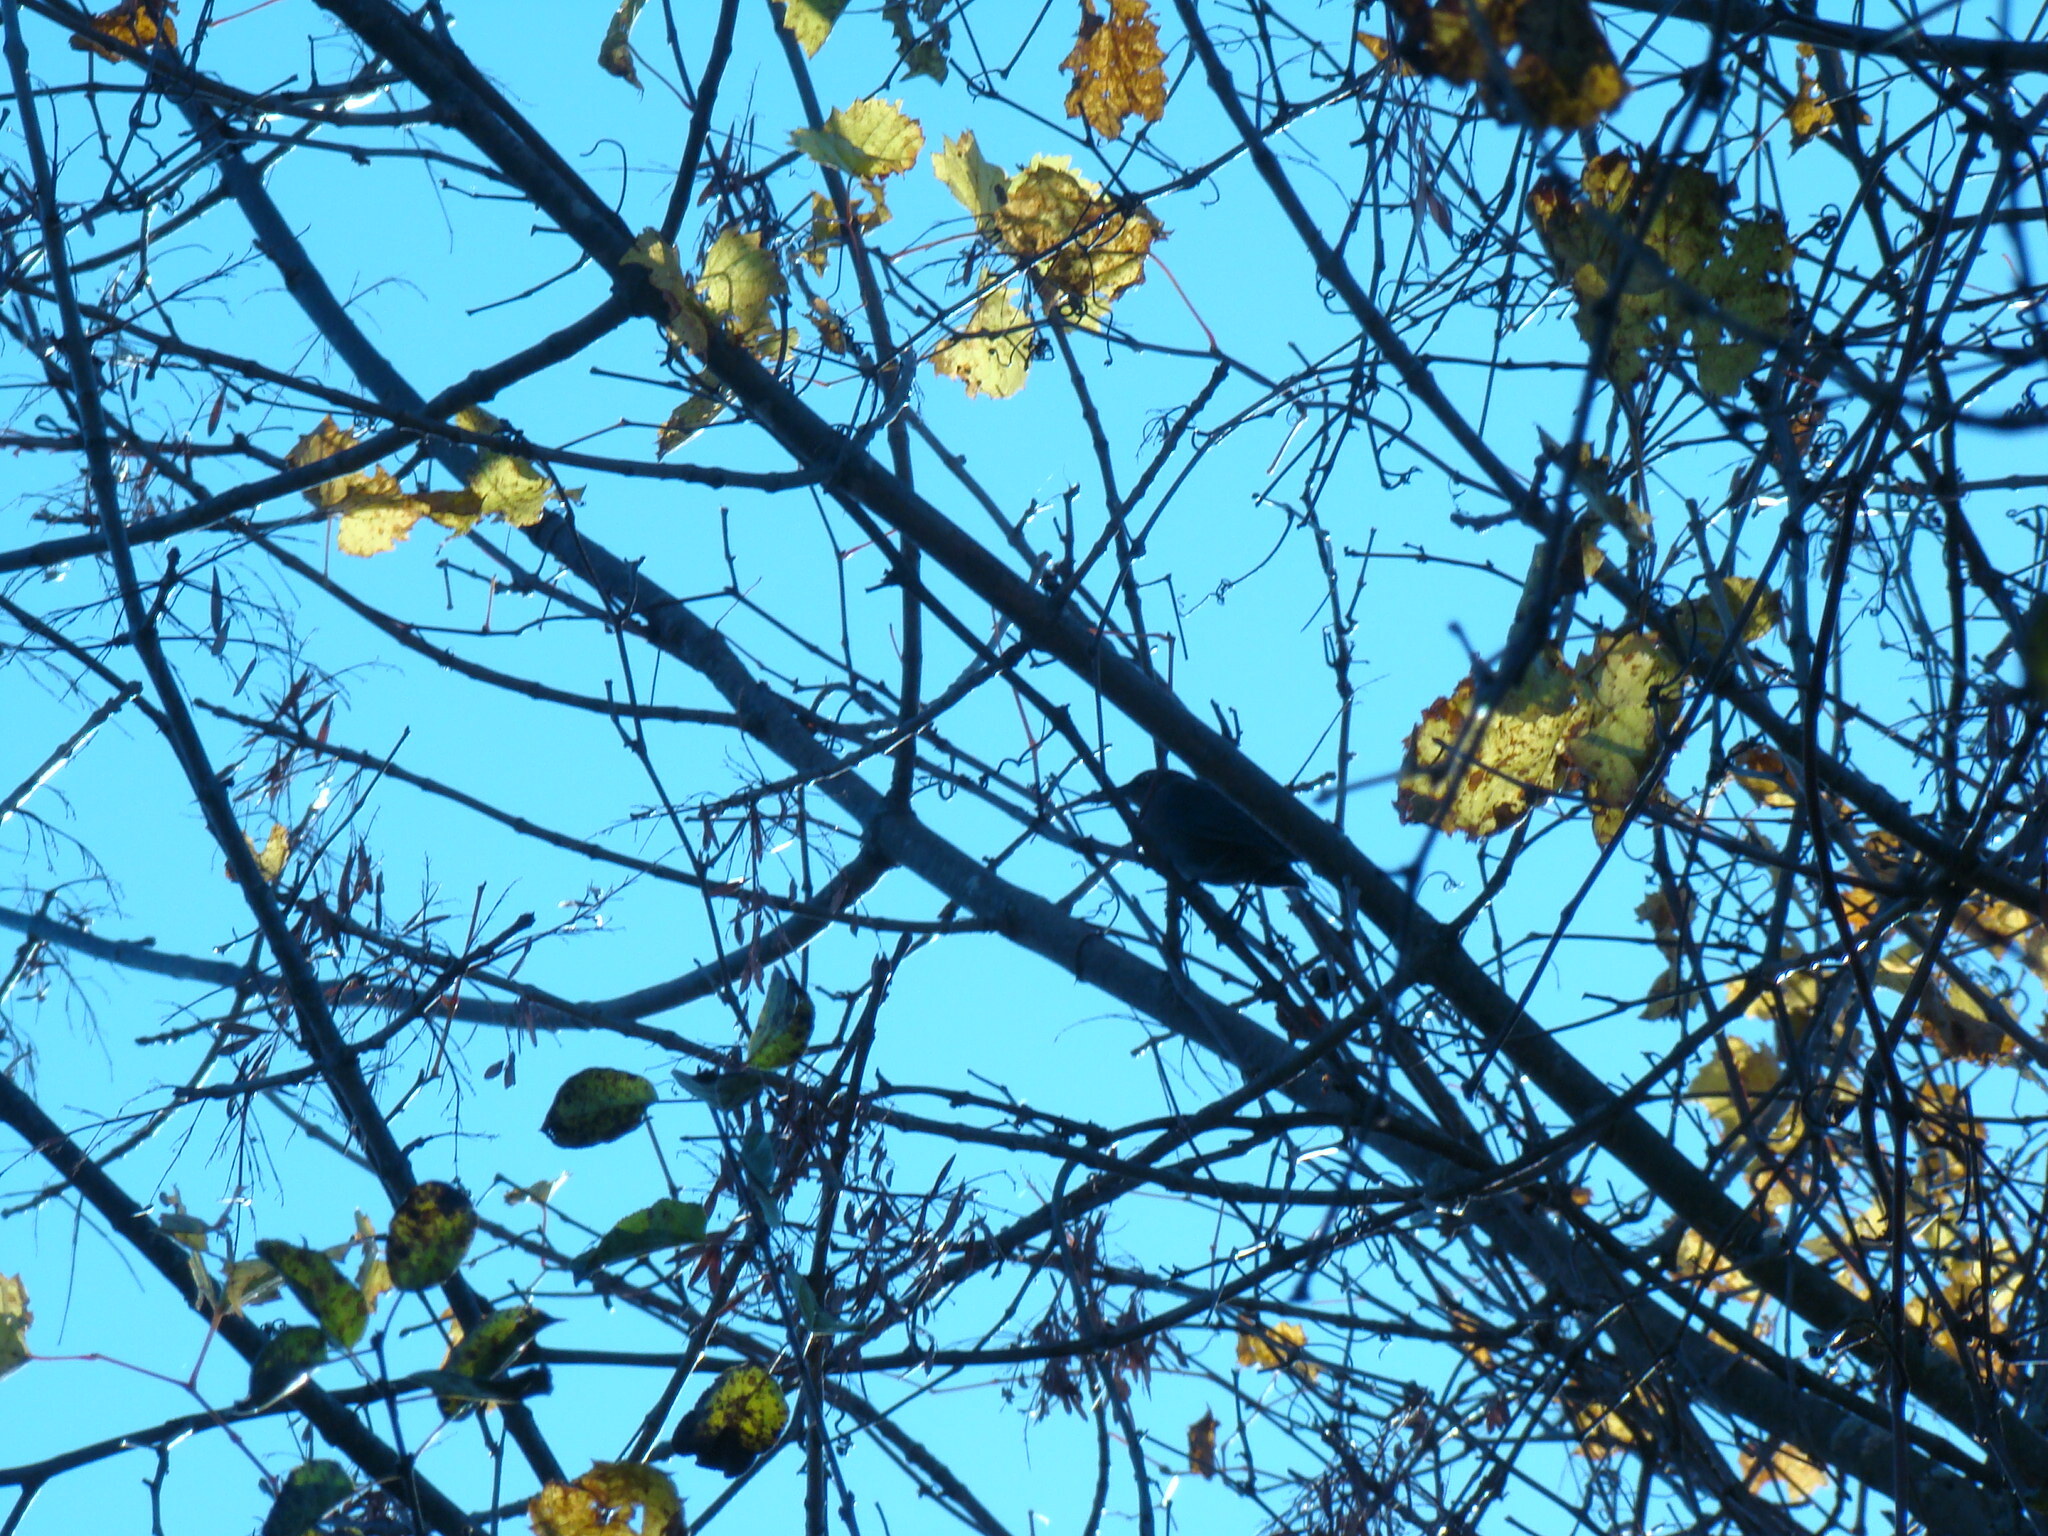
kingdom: Animalia
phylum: Chordata
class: Aves
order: Passeriformes
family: Icteridae
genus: Quiscalus
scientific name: Quiscalus quiscula
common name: Common grackle
